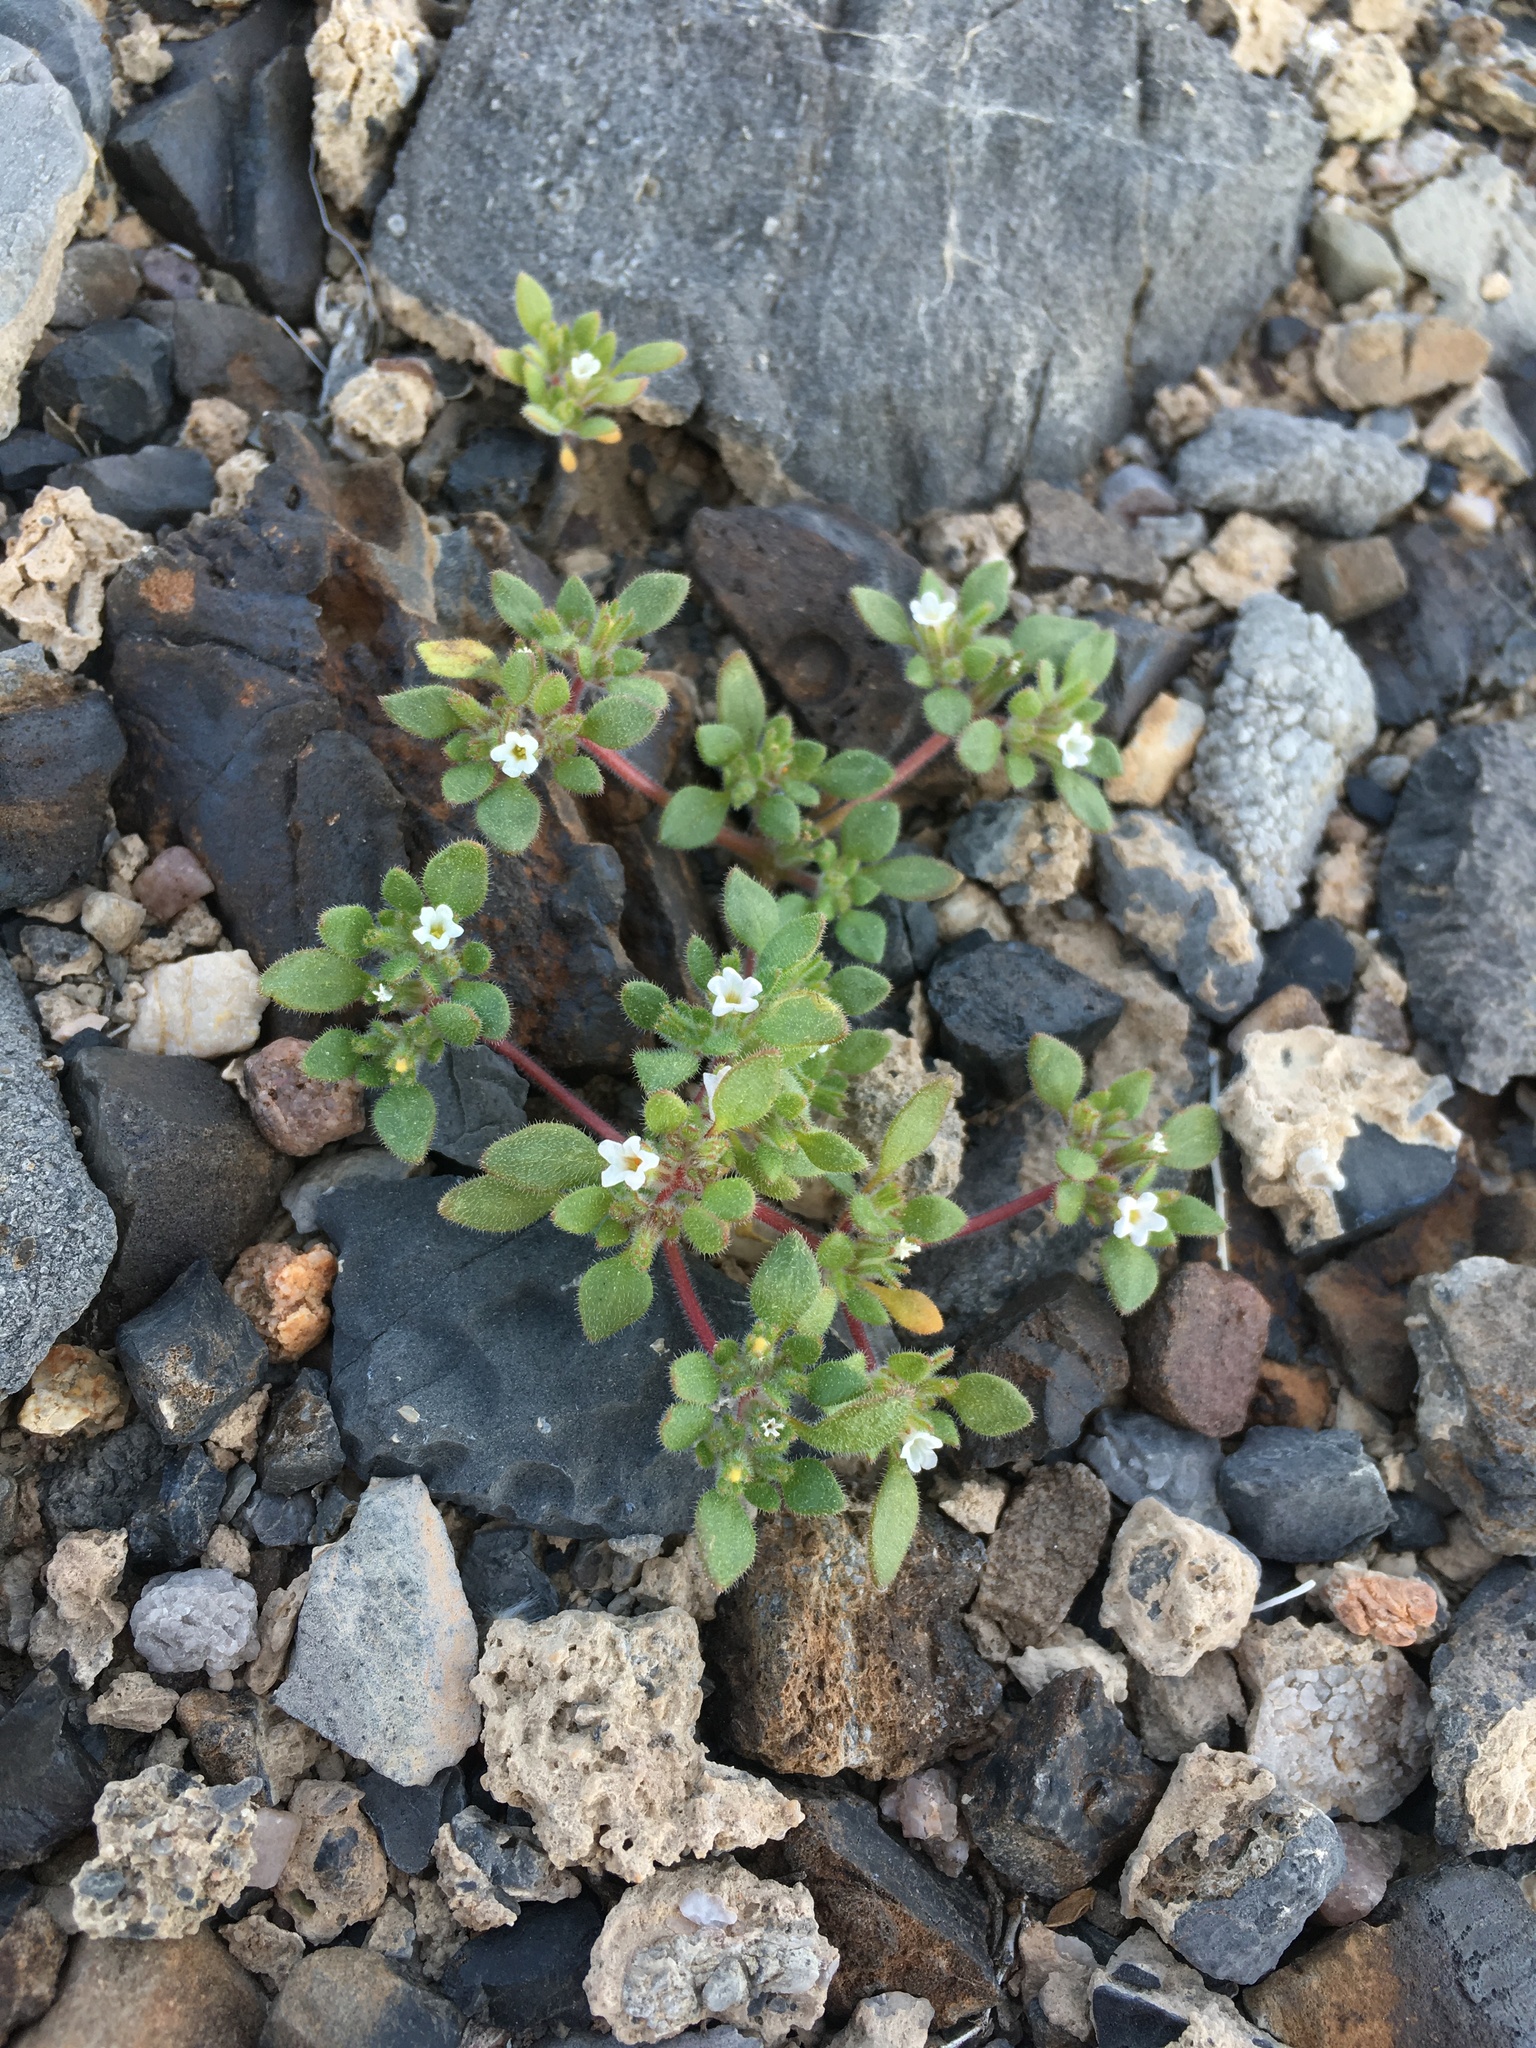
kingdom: Plantae
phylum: Tracheophyta
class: Magnoliopsida
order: Boraginales
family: Namaceae
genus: Nama
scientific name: Nama pusilla
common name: Eggleaf nama
